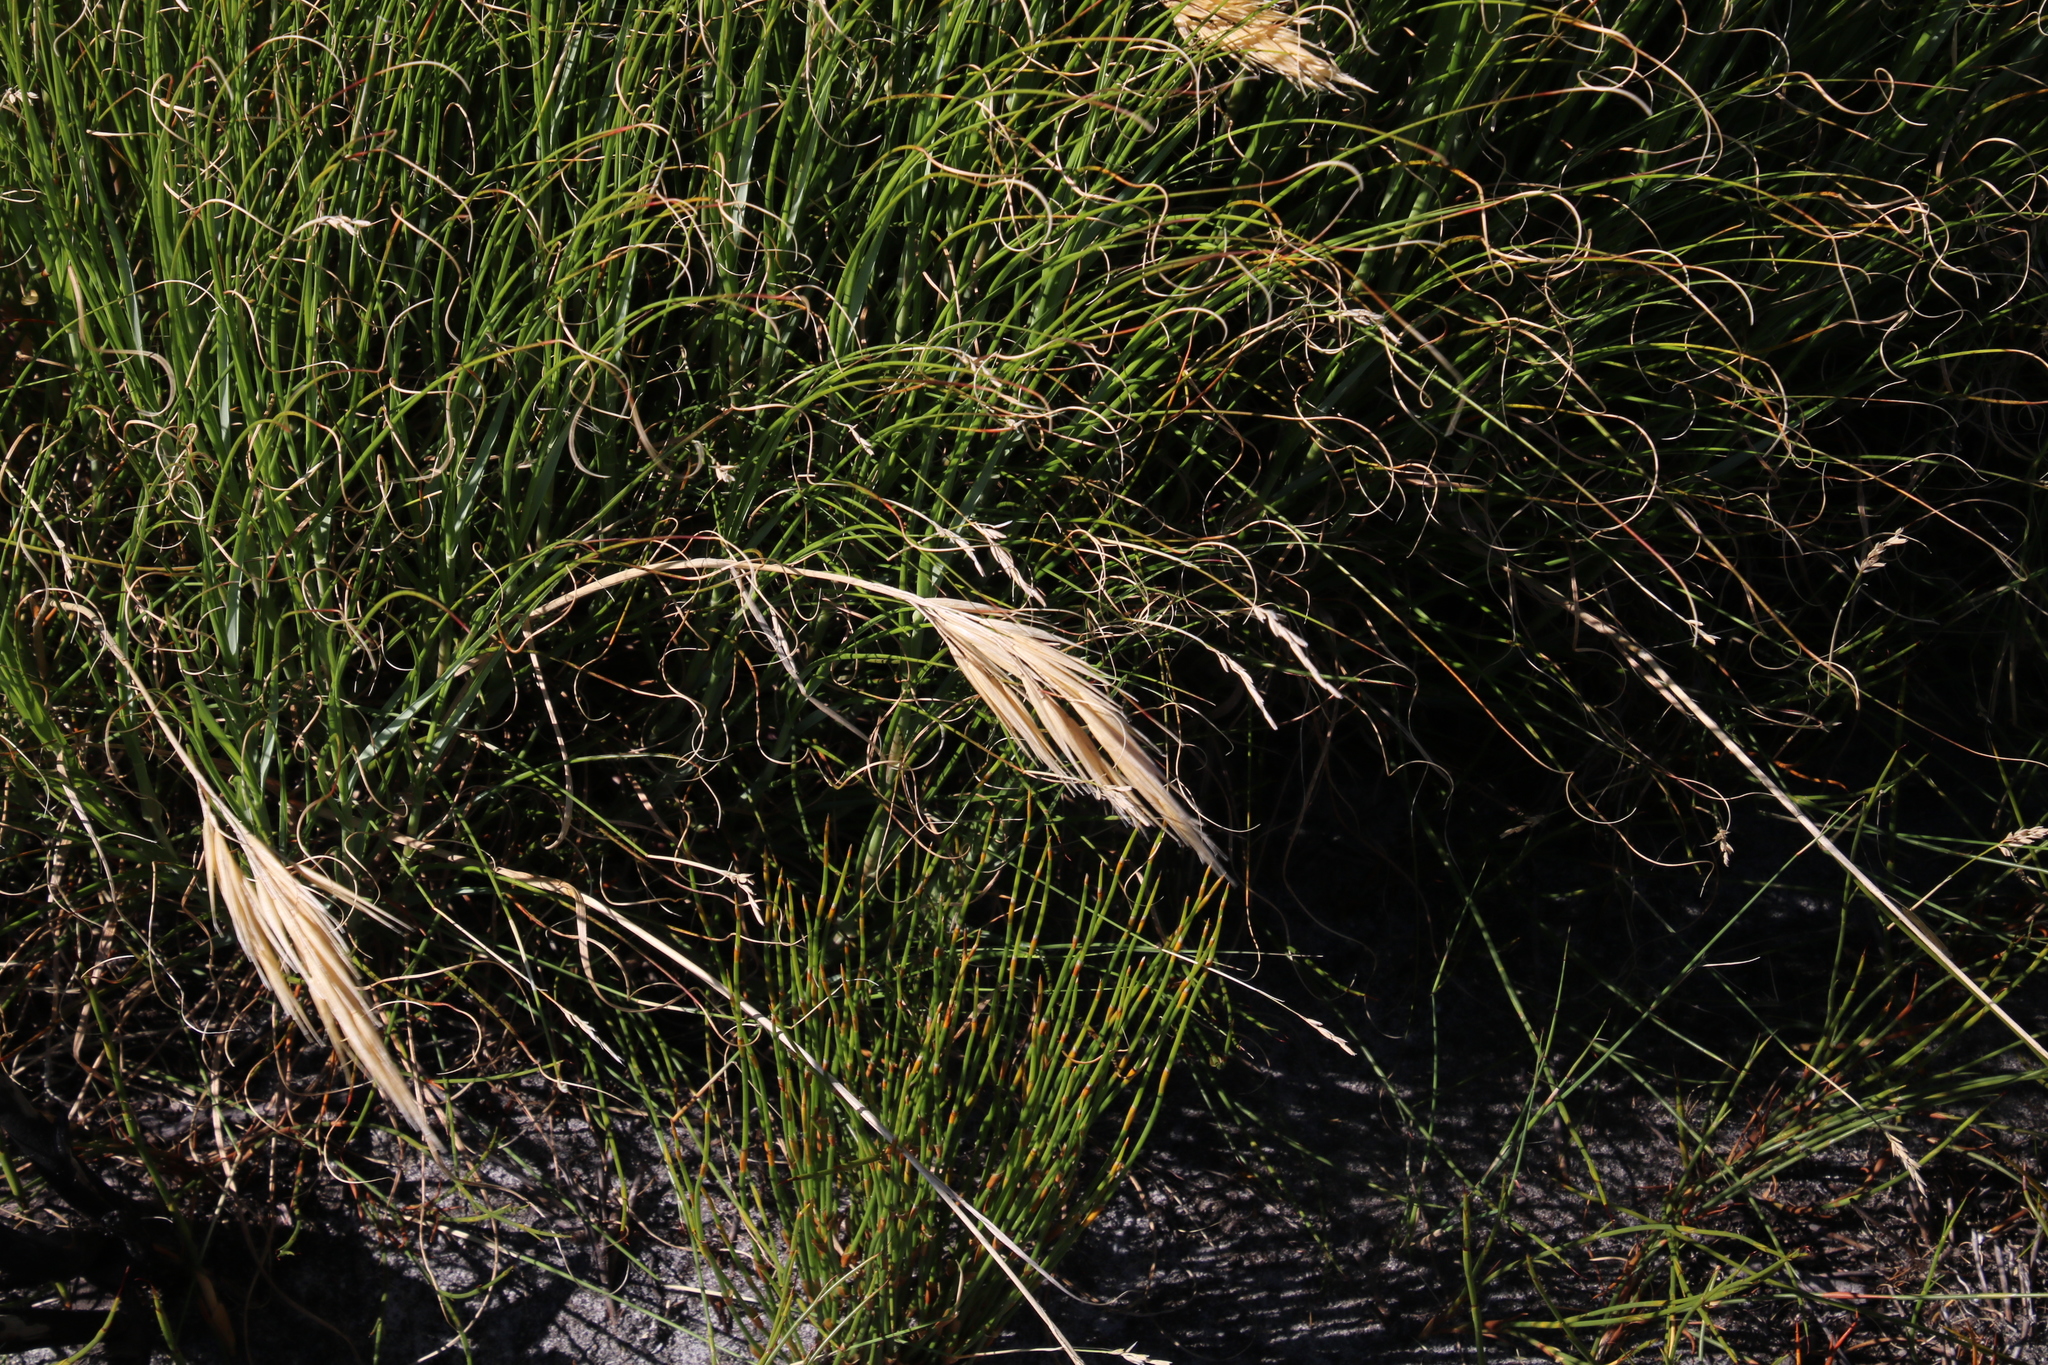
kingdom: Plantae
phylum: Tracheophyta
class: Liliopsida
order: Poales
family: Poaceae
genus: Pseudopentameris
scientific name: Pseudopentameris macrantha
